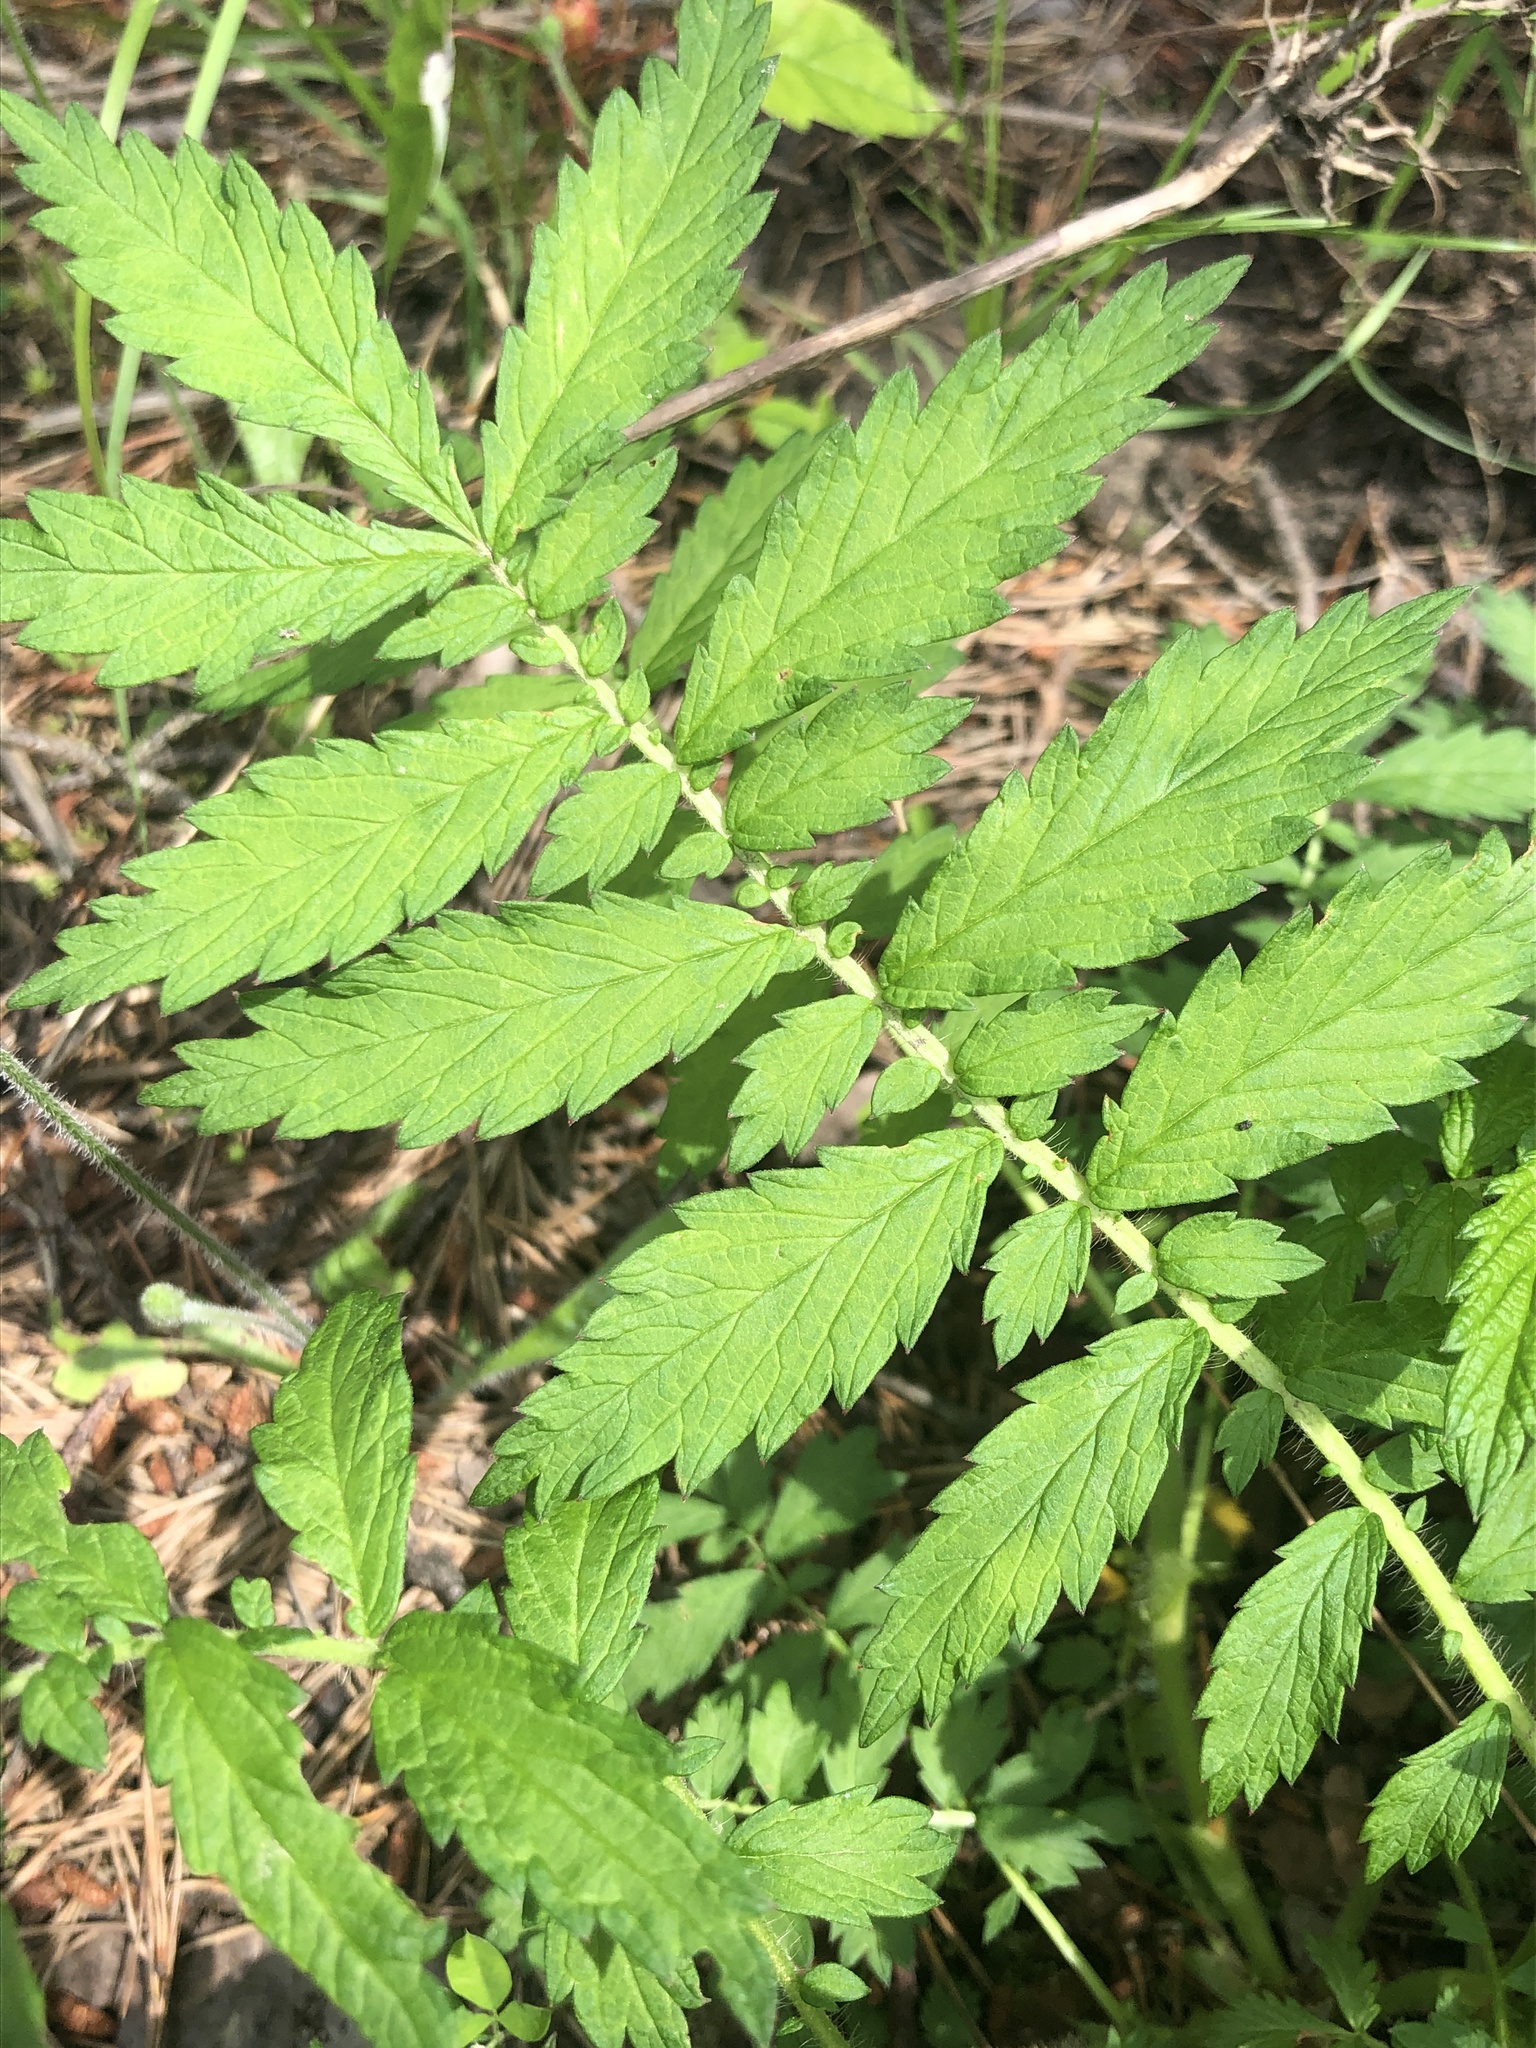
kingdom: Plantae
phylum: Tracheophyta
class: Magnoliopsida
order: Rosales
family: Rosaceae
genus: Agrimonia
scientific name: Agrimonia parviflora
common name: Harvest-lice
